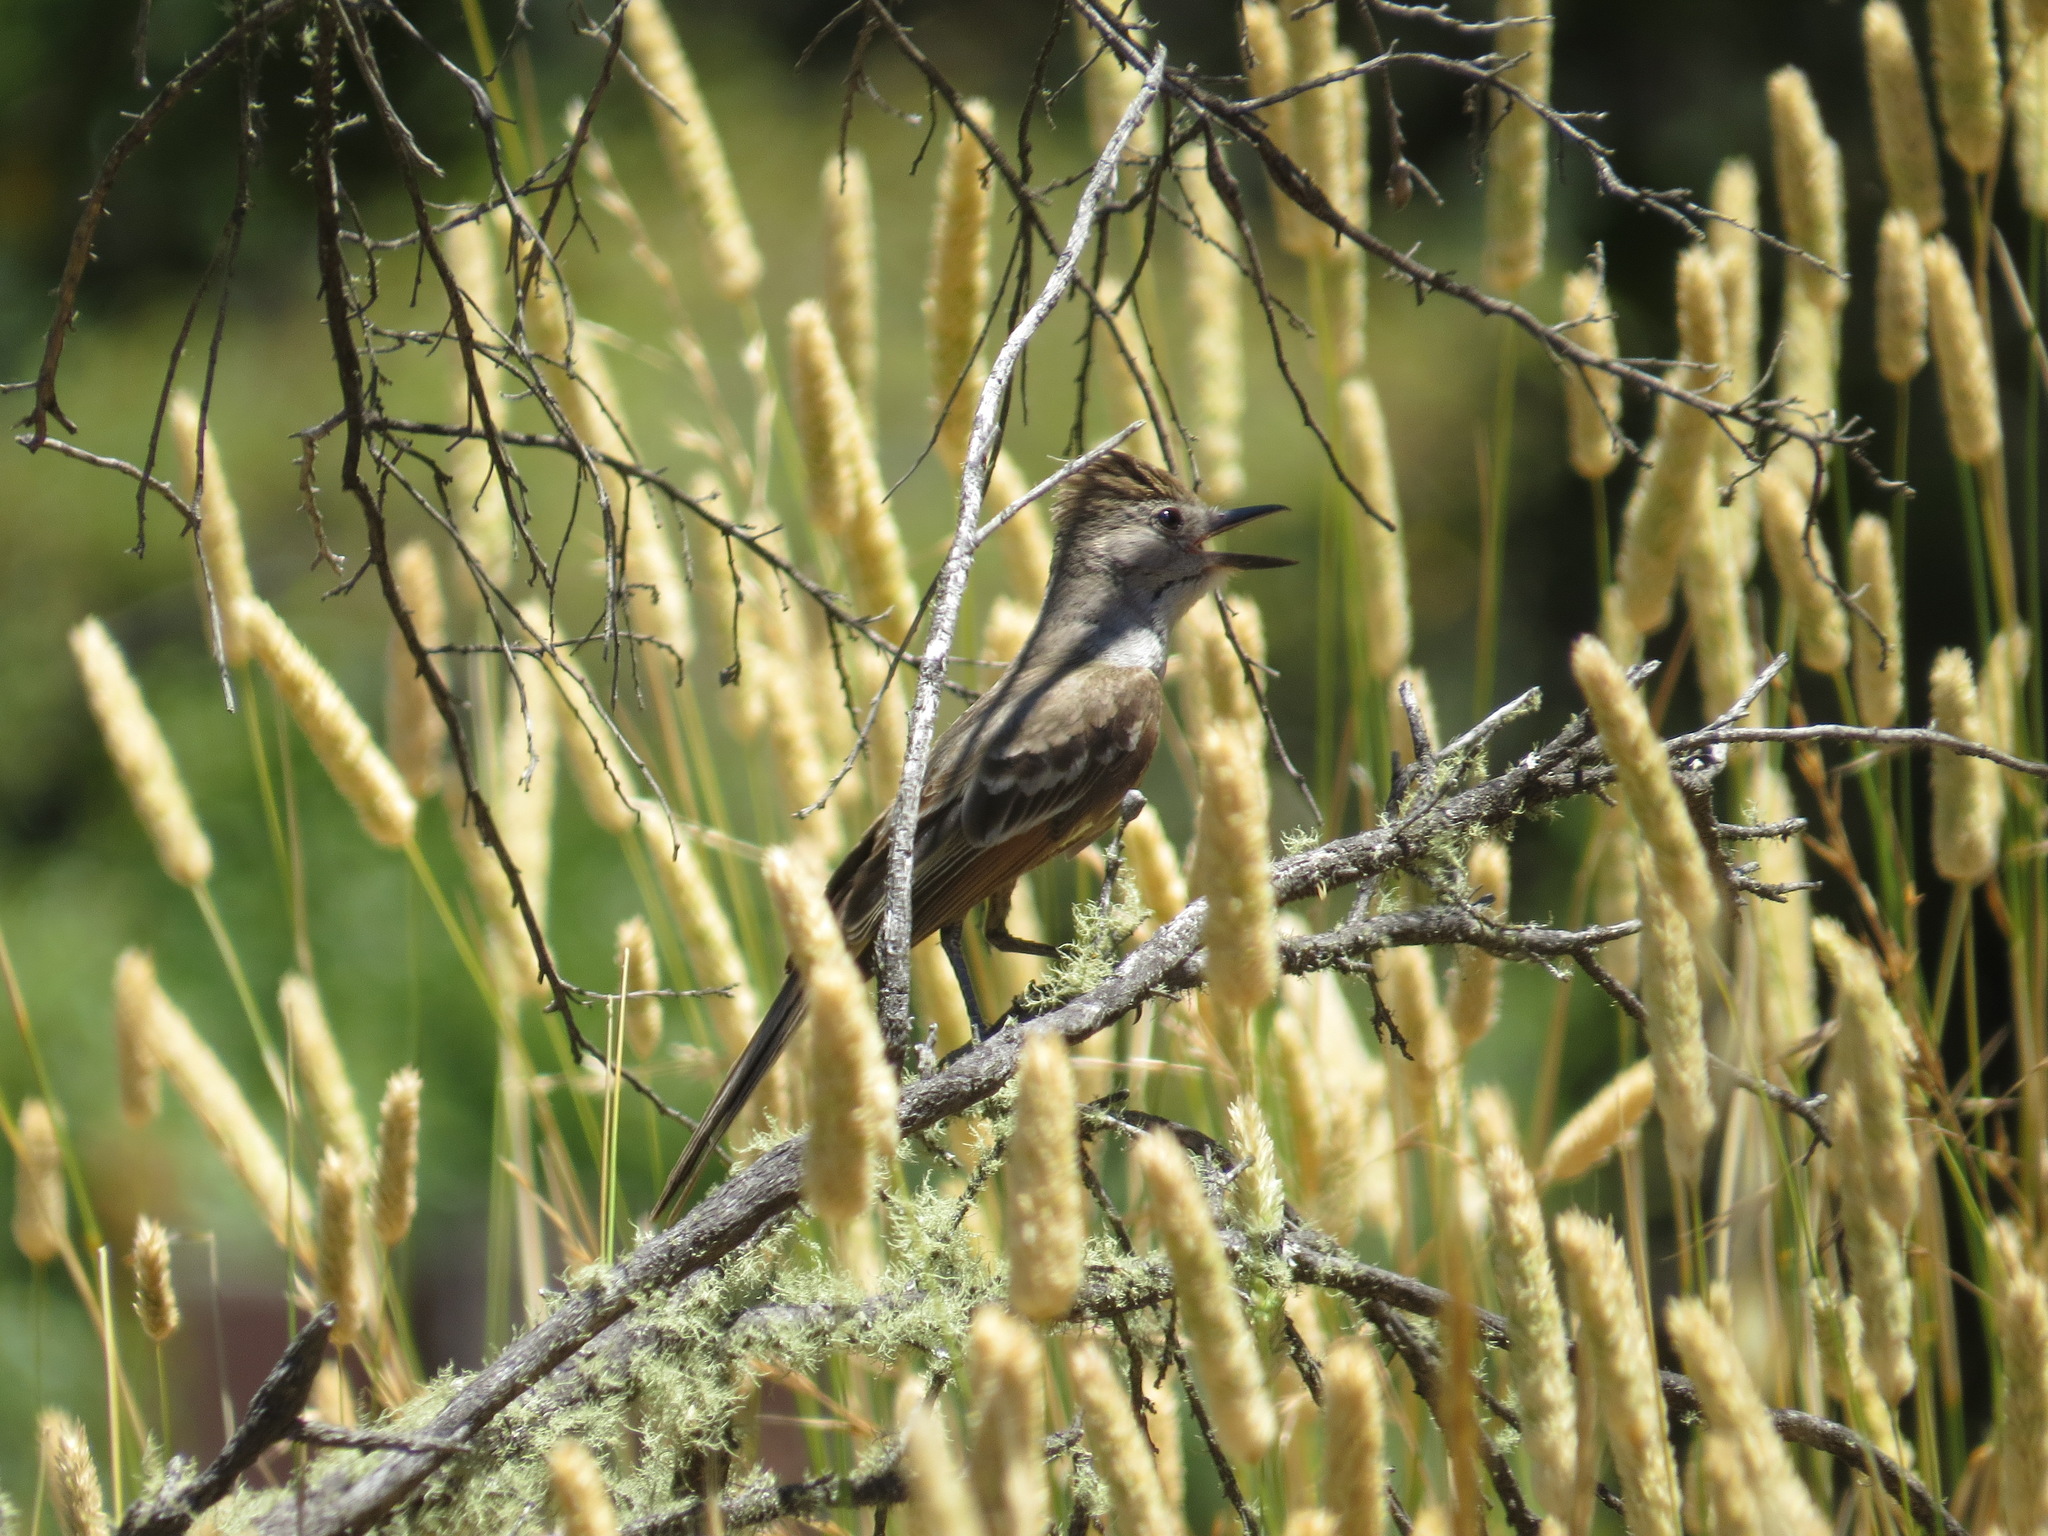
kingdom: Animalia
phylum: Chordata
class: Aves
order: Passeriformes
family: Tyrannidae
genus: Myiarchus
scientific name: Myiarchus cinerascens
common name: Ash-throated flycatcher
